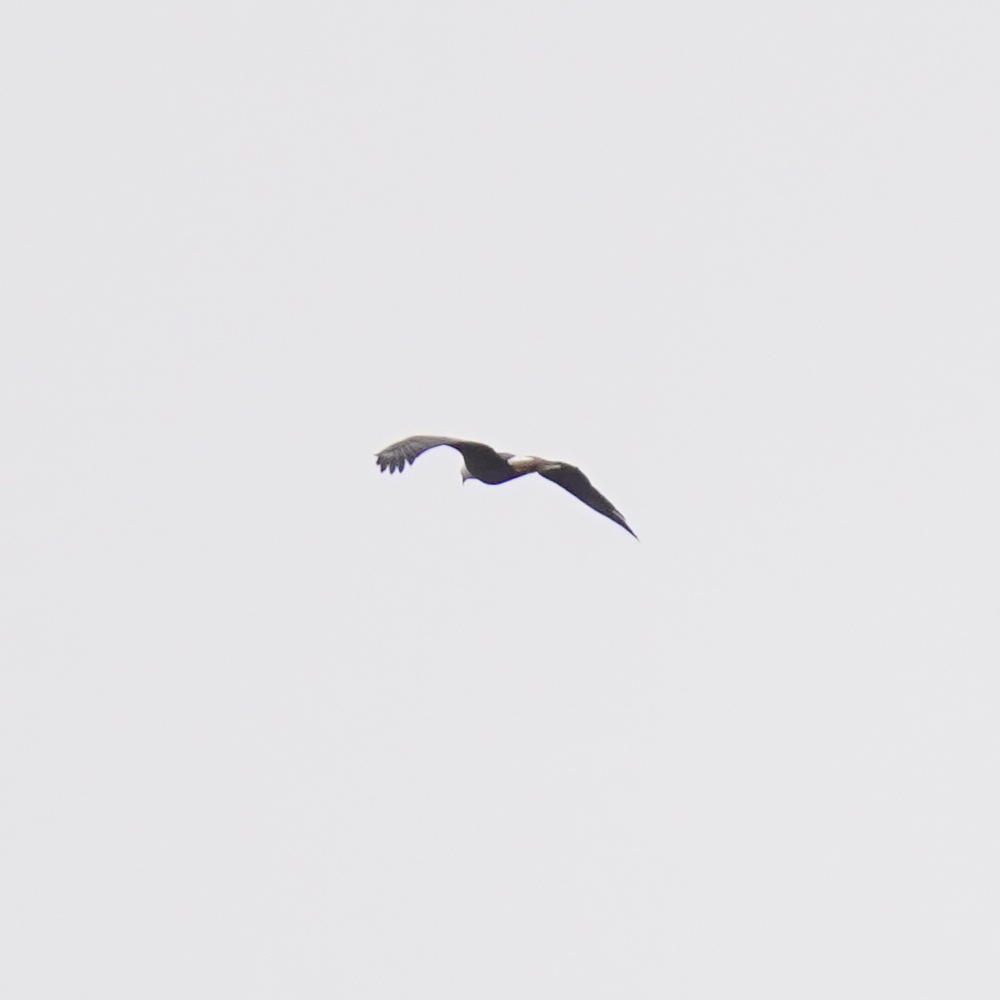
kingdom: Animalia
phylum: Chordata
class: Aves
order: Accipitriformes
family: Accipitridae
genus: Haliaeetus
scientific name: Haliaeetus leucocephalus
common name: Bald eagle
